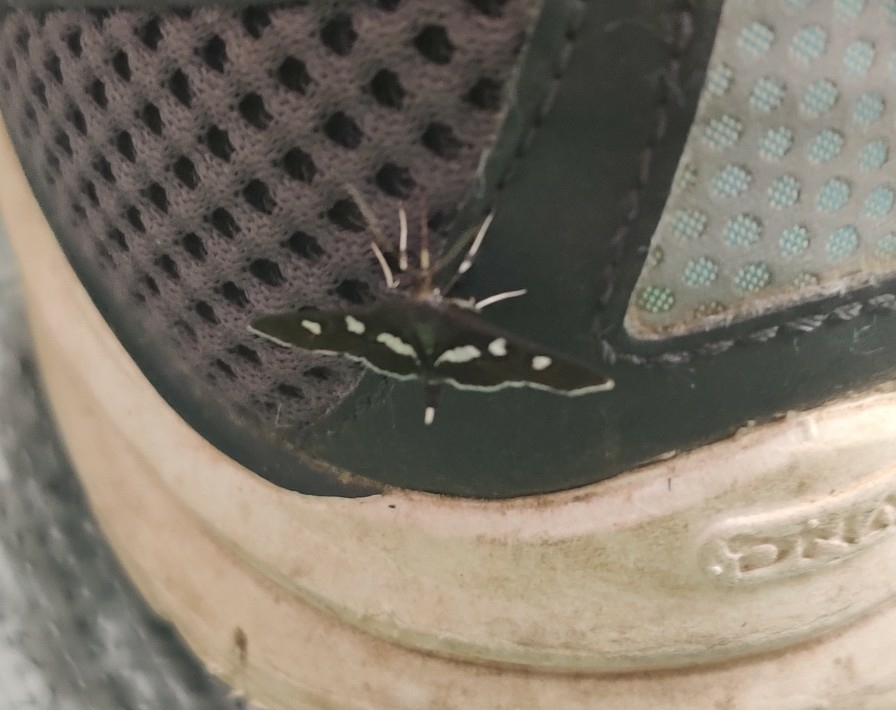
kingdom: Animalia
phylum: Arthropoda
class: Insecta
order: Lepidoptera
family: Crambidae
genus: Desmia
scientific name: Desmia
